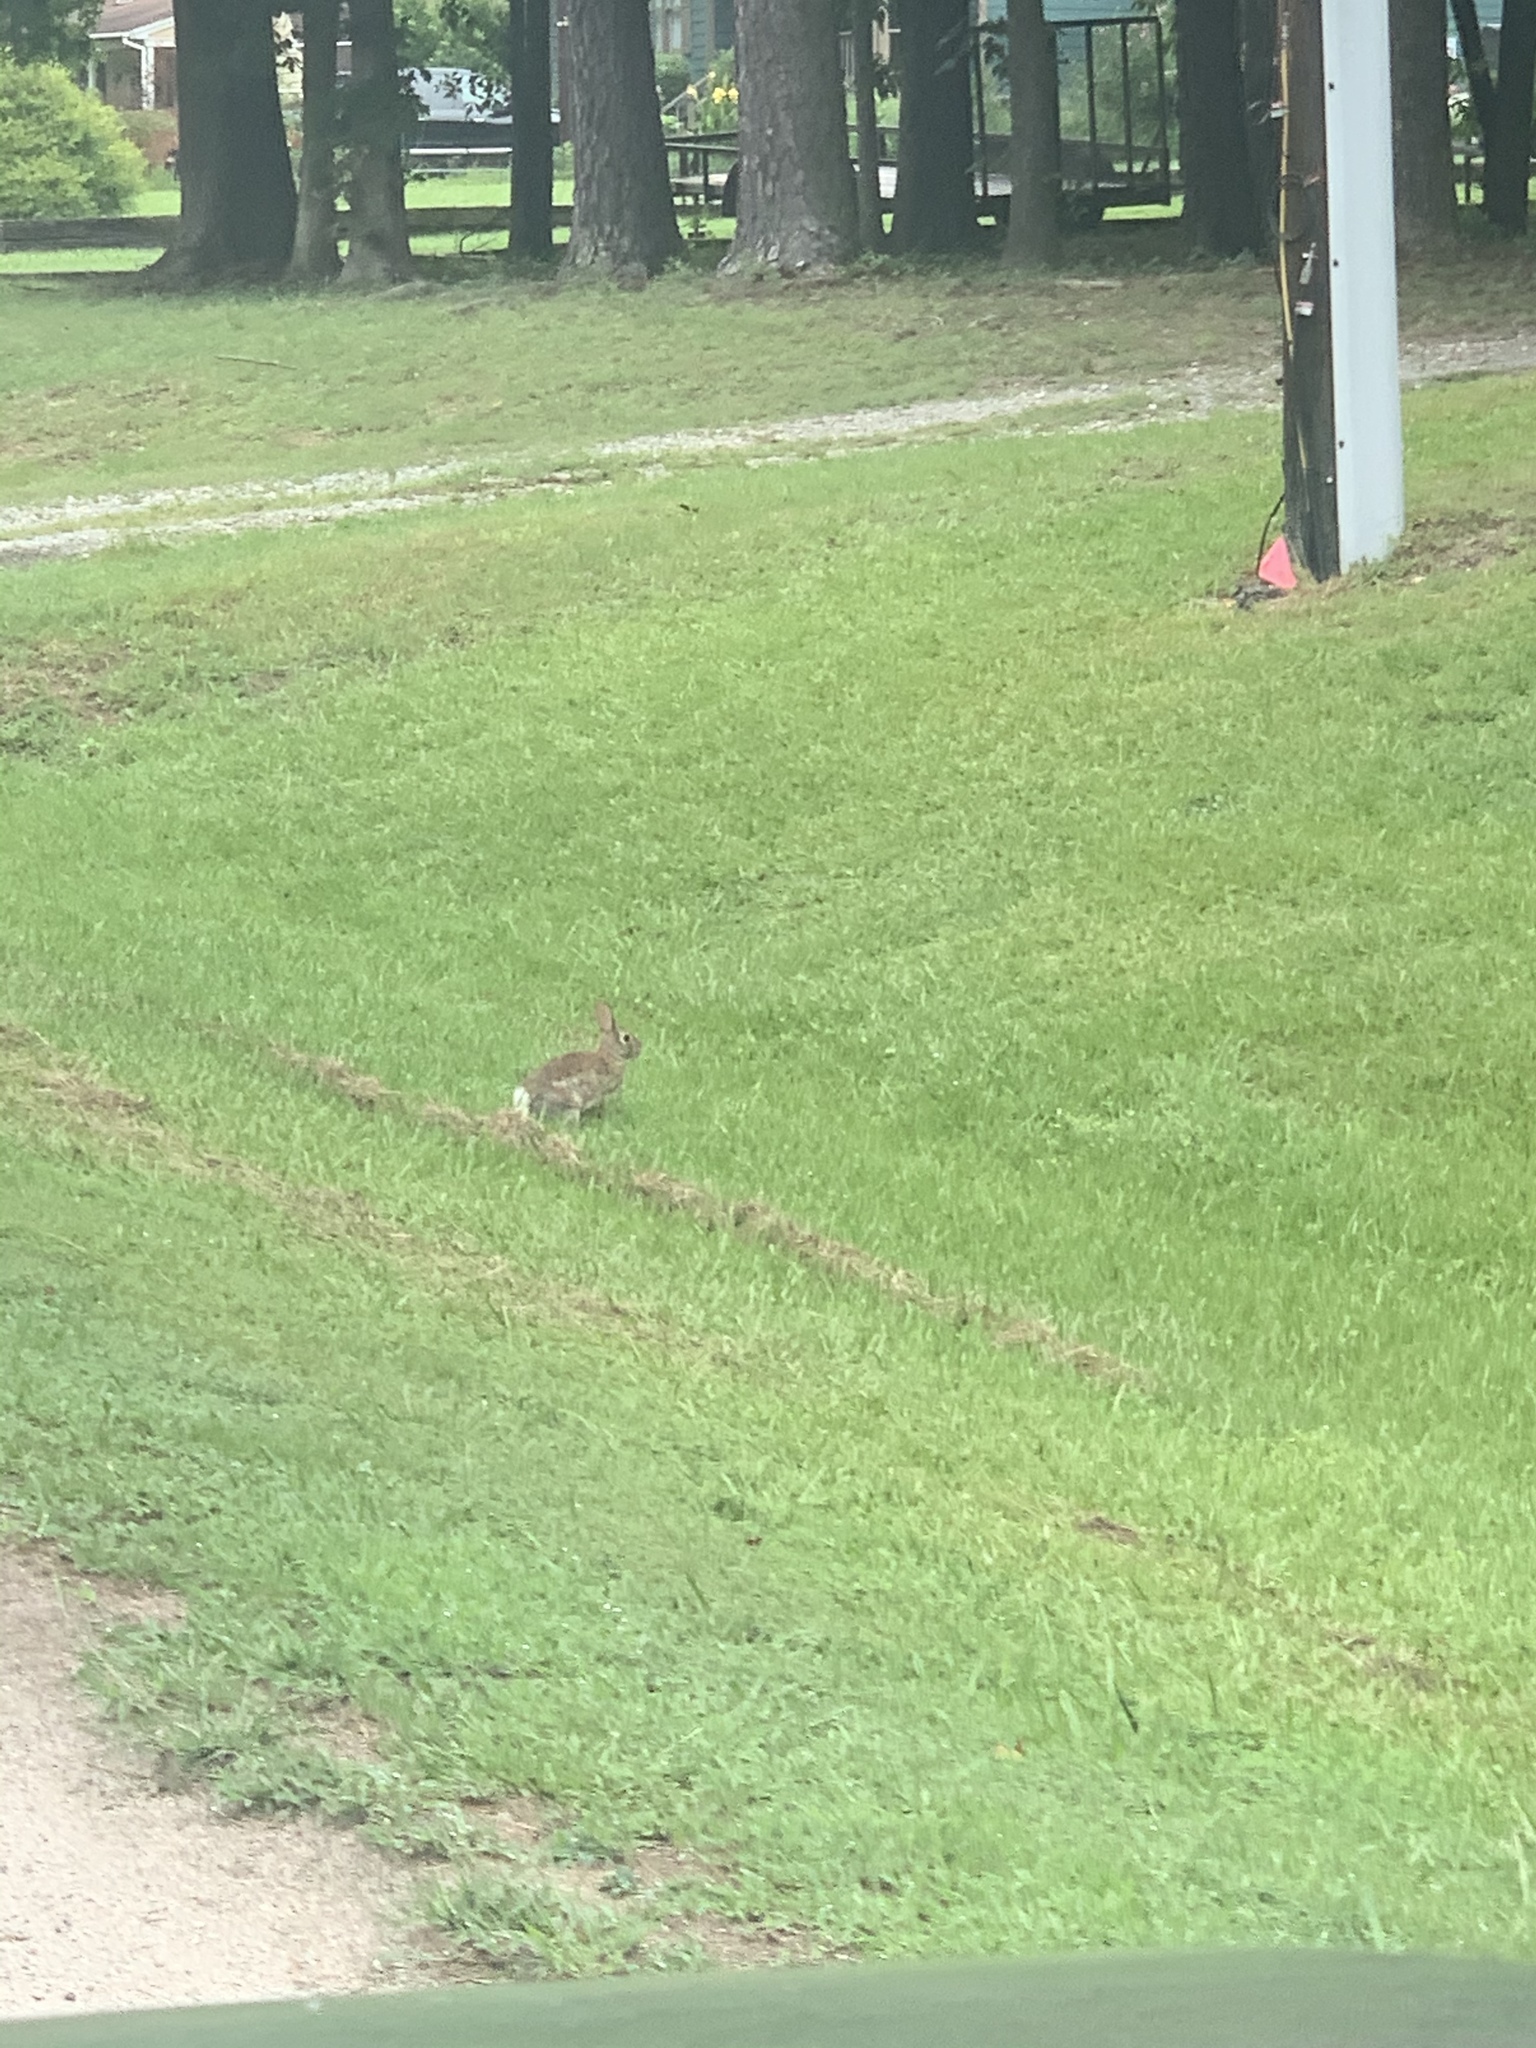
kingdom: Animalia
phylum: Chordata
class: Mammalia
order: Lagomorpha
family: Leporidae
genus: Sylvilagus
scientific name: Sylvilagus floridanus
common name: Eastern cottontail
